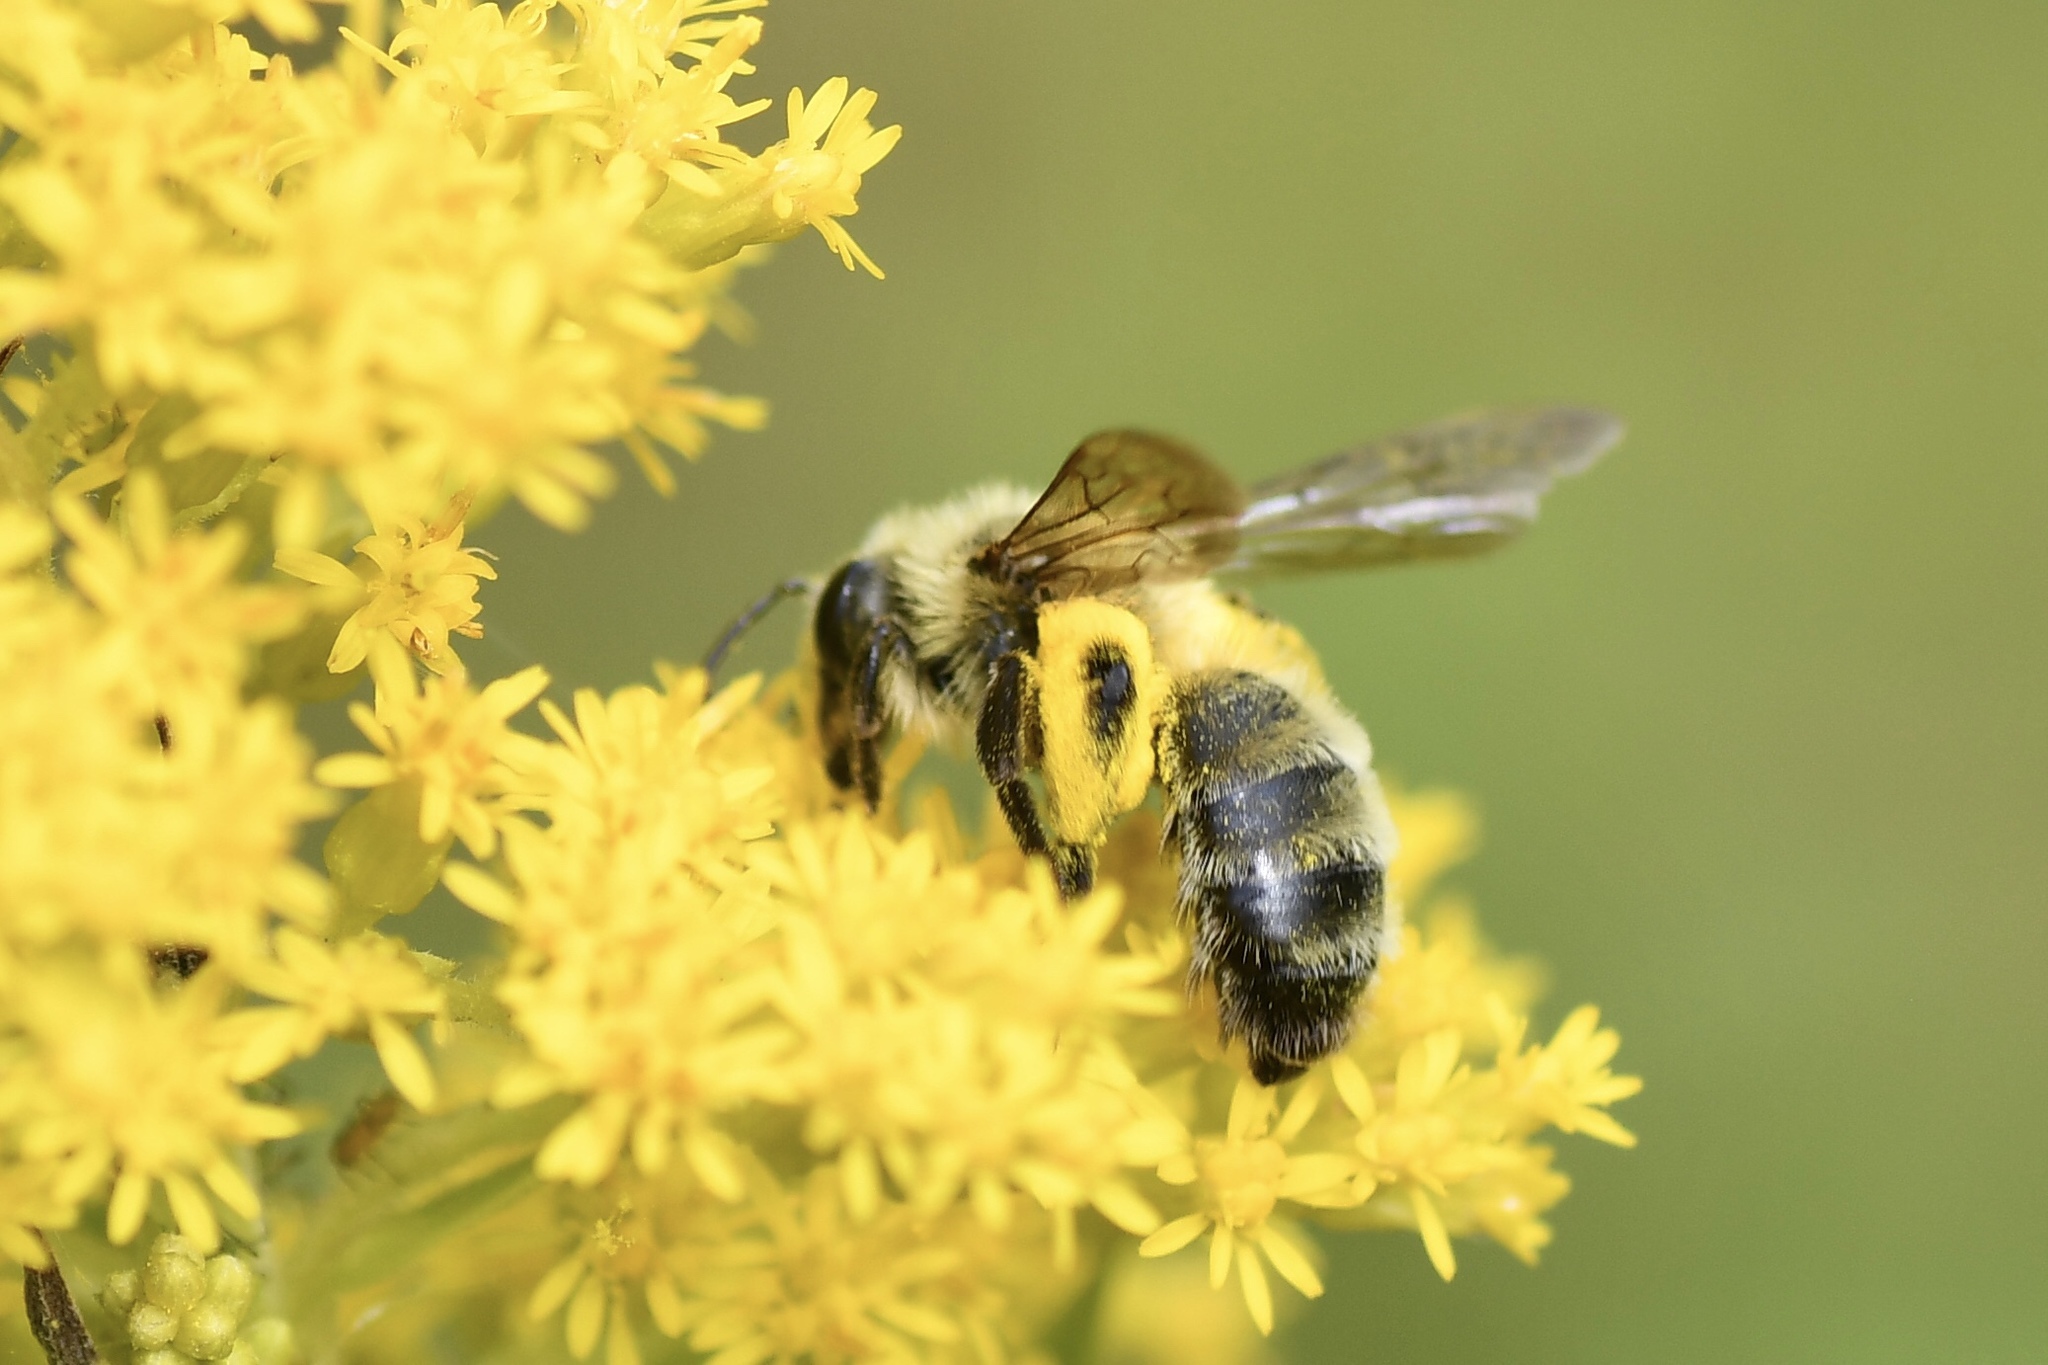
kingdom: Animalia
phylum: Arthropoda
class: Insecta
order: Hymenoptera
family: Andrenidae
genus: Andrena
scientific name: Andrena hirticincta
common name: Hairy-banded mining bee
